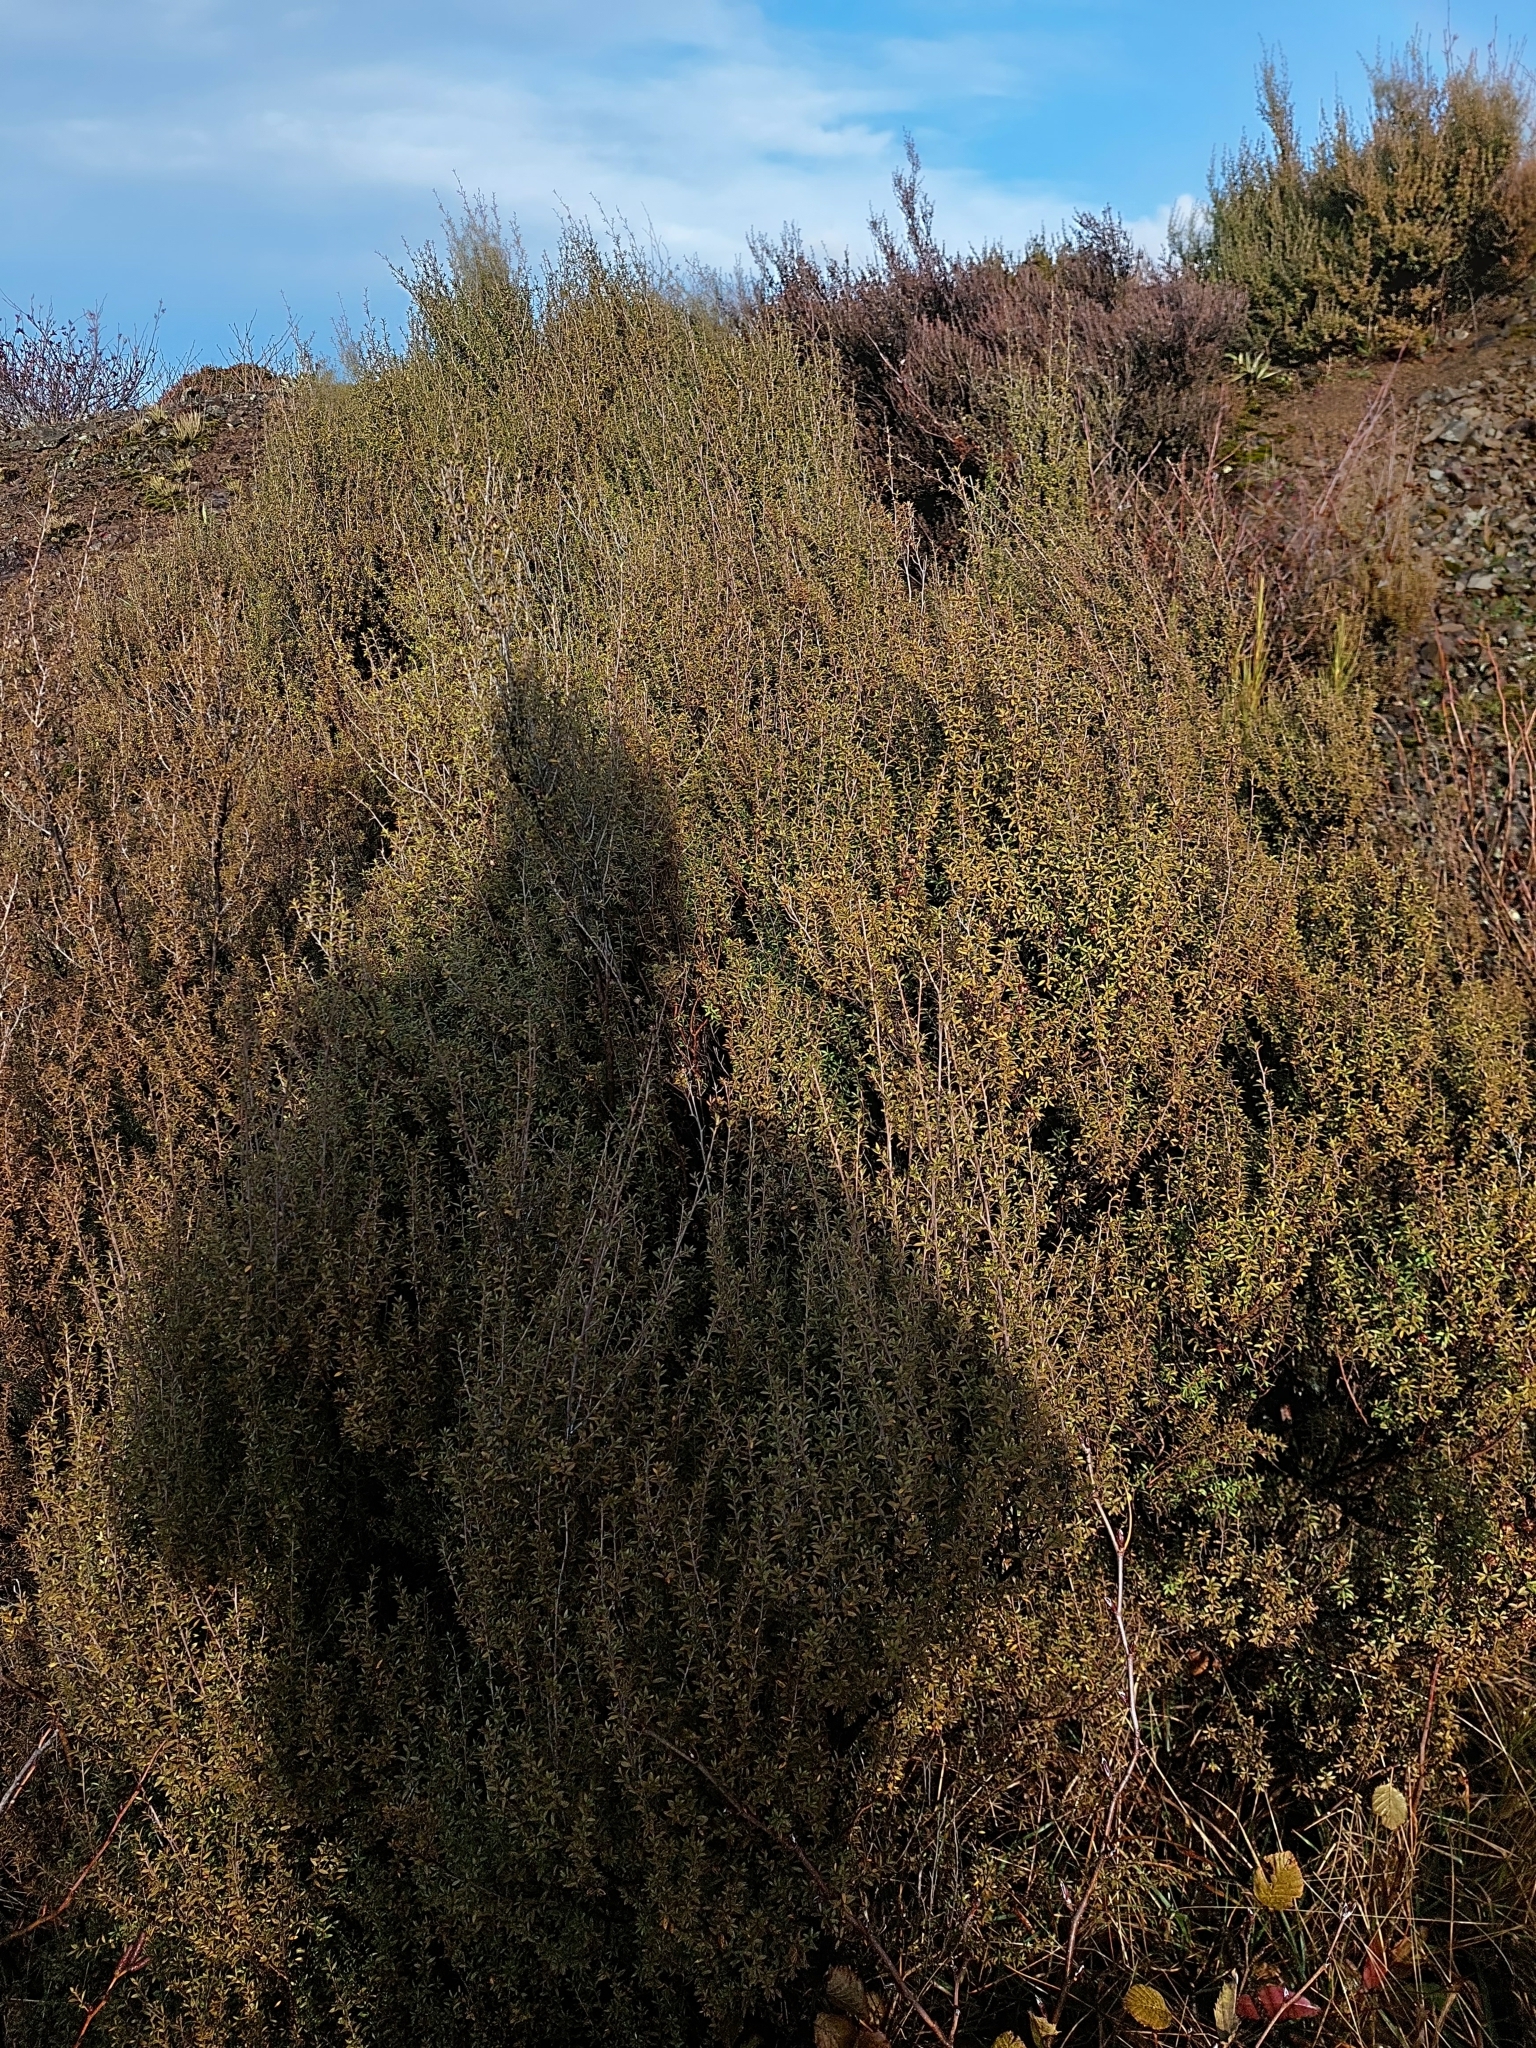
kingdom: Plantae
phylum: Tracheophyta
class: Magnoliopsida
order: Myrtales
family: Myrtaceae
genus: Leptospermum
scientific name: Leptospermum scoparium
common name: Broom tea-tree
